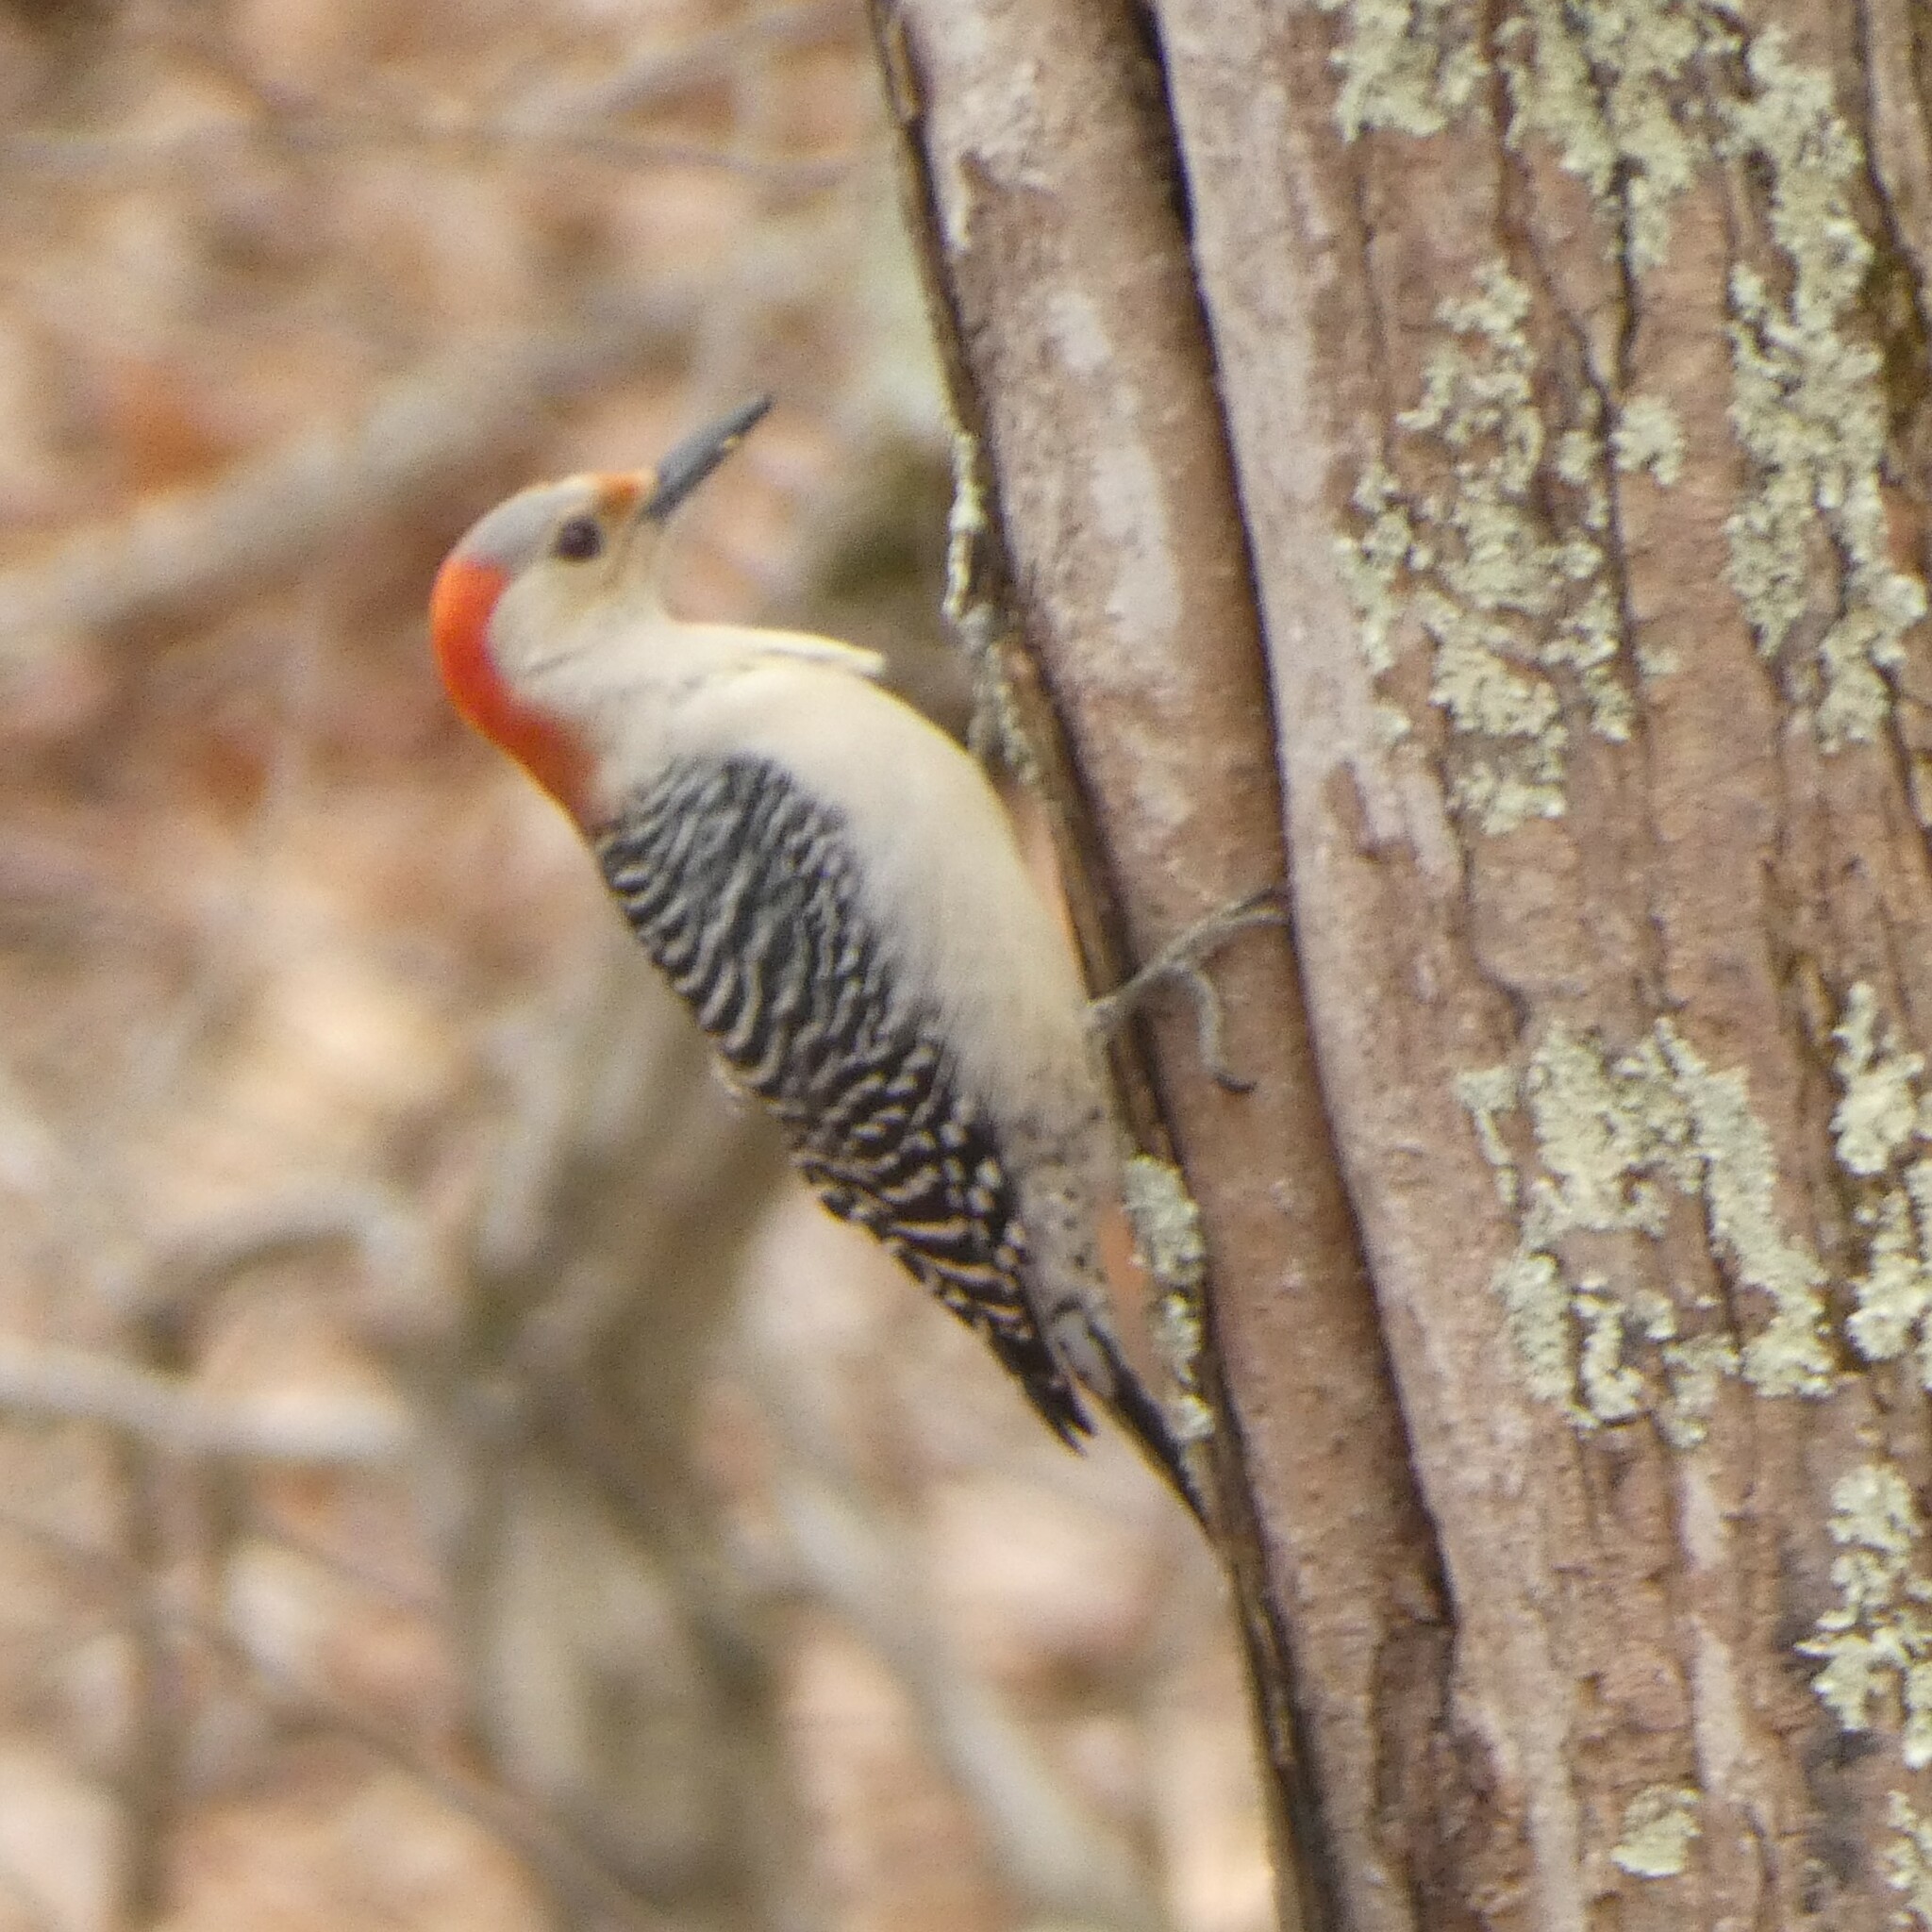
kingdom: Animalia
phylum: Chordata
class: Aves
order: Piciformes
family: Picidae
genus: Melanerpes
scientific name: Melanerpes carolinus
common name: Red-bellied woodpecker
